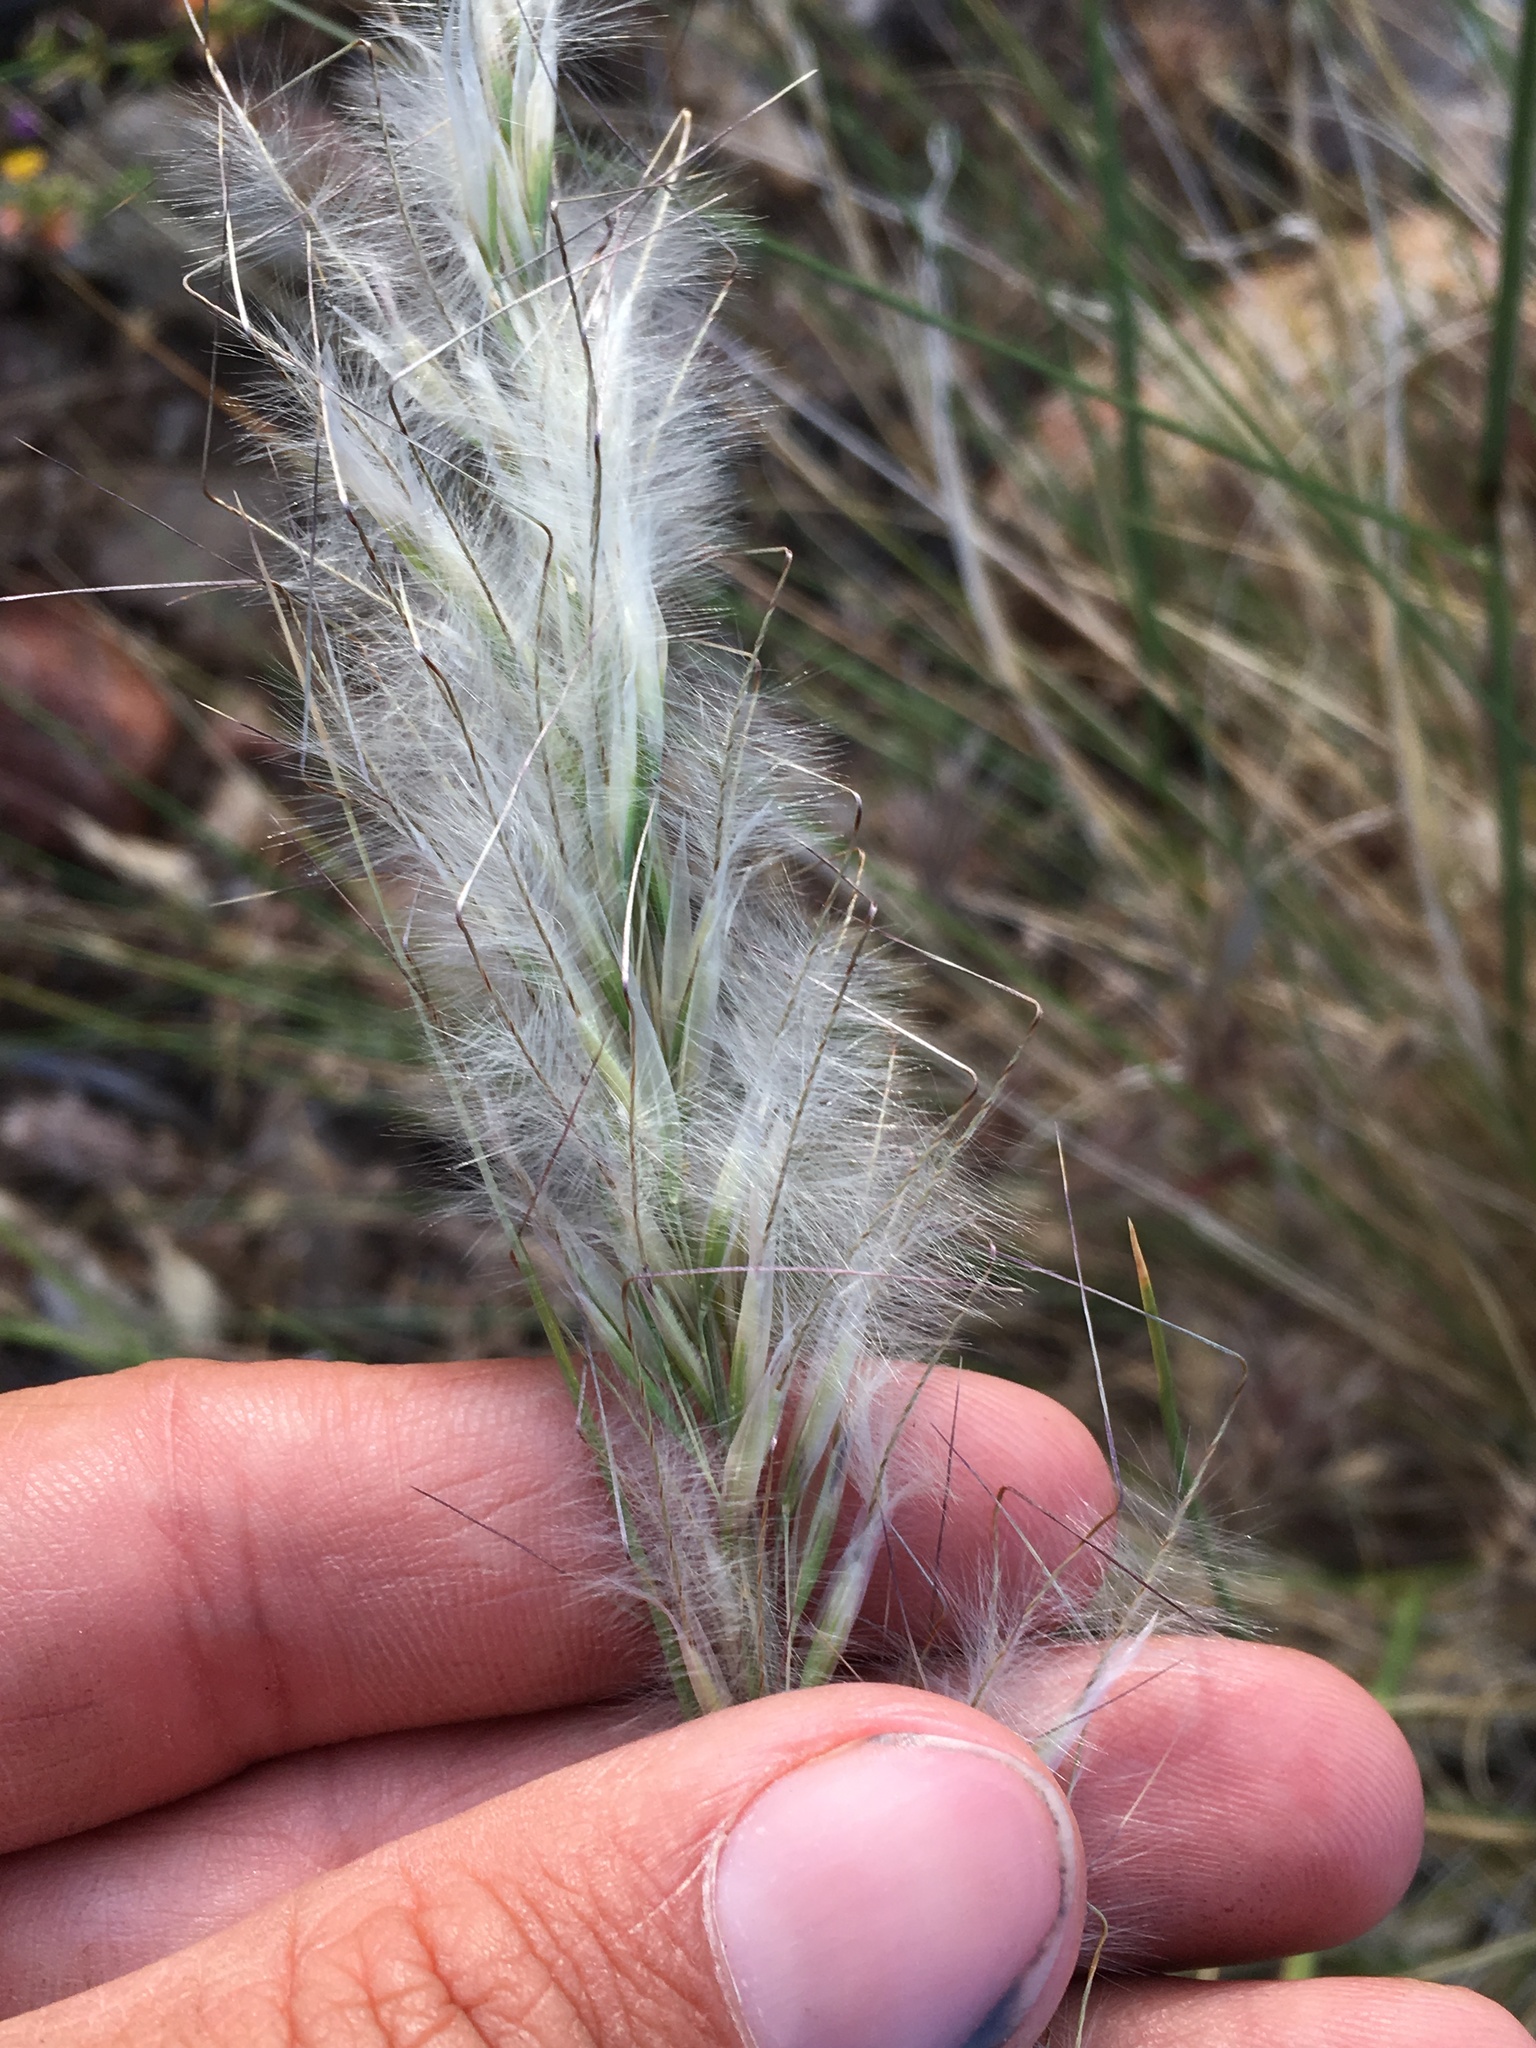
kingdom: Plantae
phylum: Tracheophyta
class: Liliopsida
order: Poales
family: Poaceae
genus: Pappostipa
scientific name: Pappostipa speciosa
